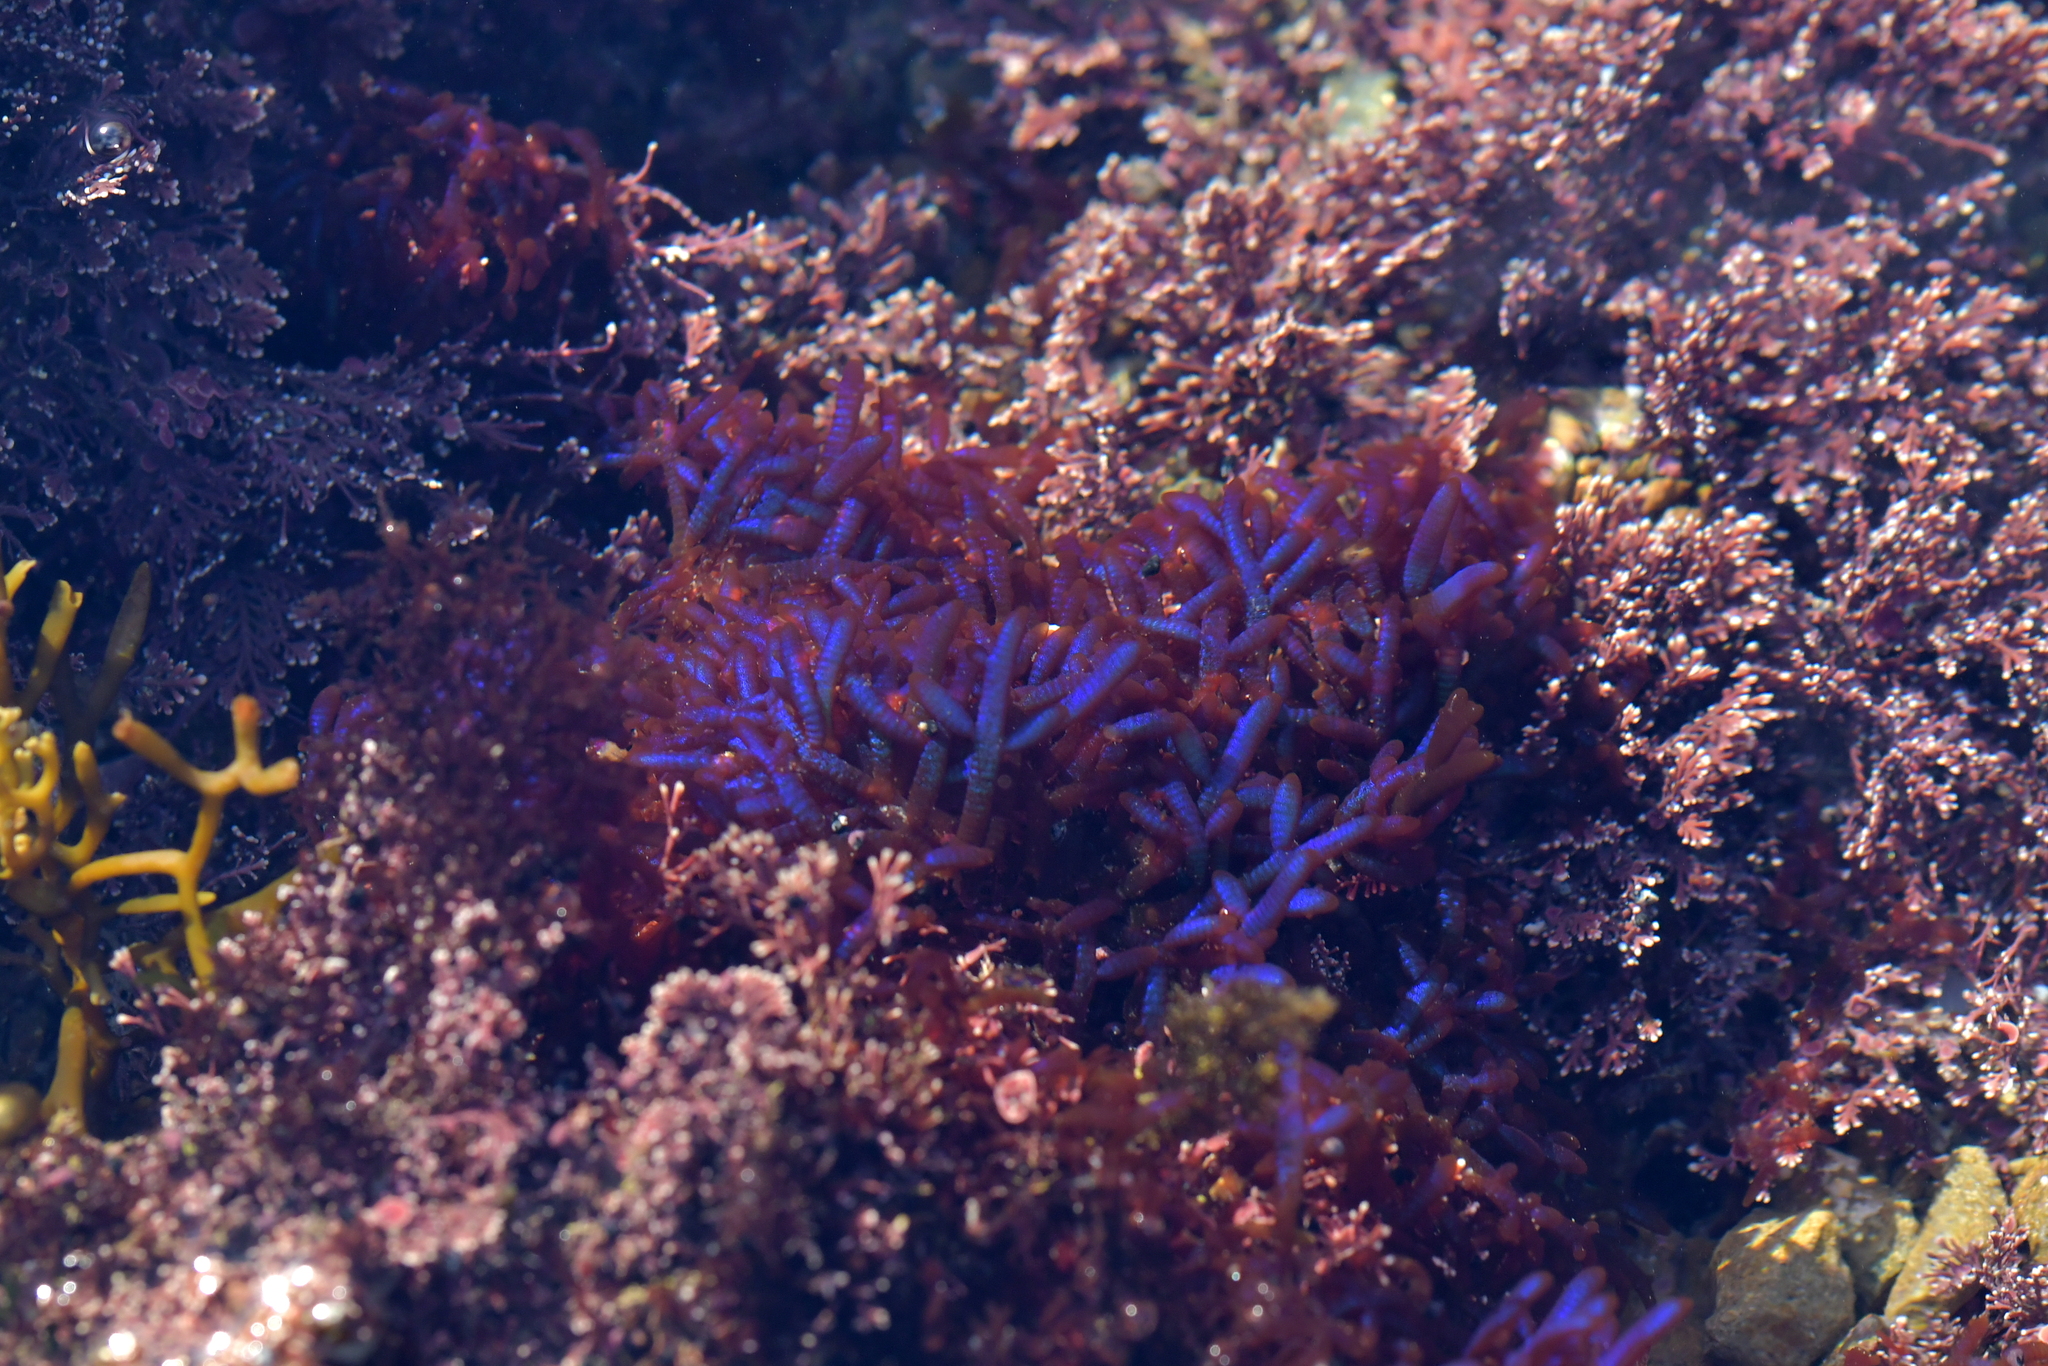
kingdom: Plantae
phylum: Rhodophyta
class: Florideophyceae
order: Rhodymeniales
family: Champiaceae
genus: Champia
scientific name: Champia laingii
